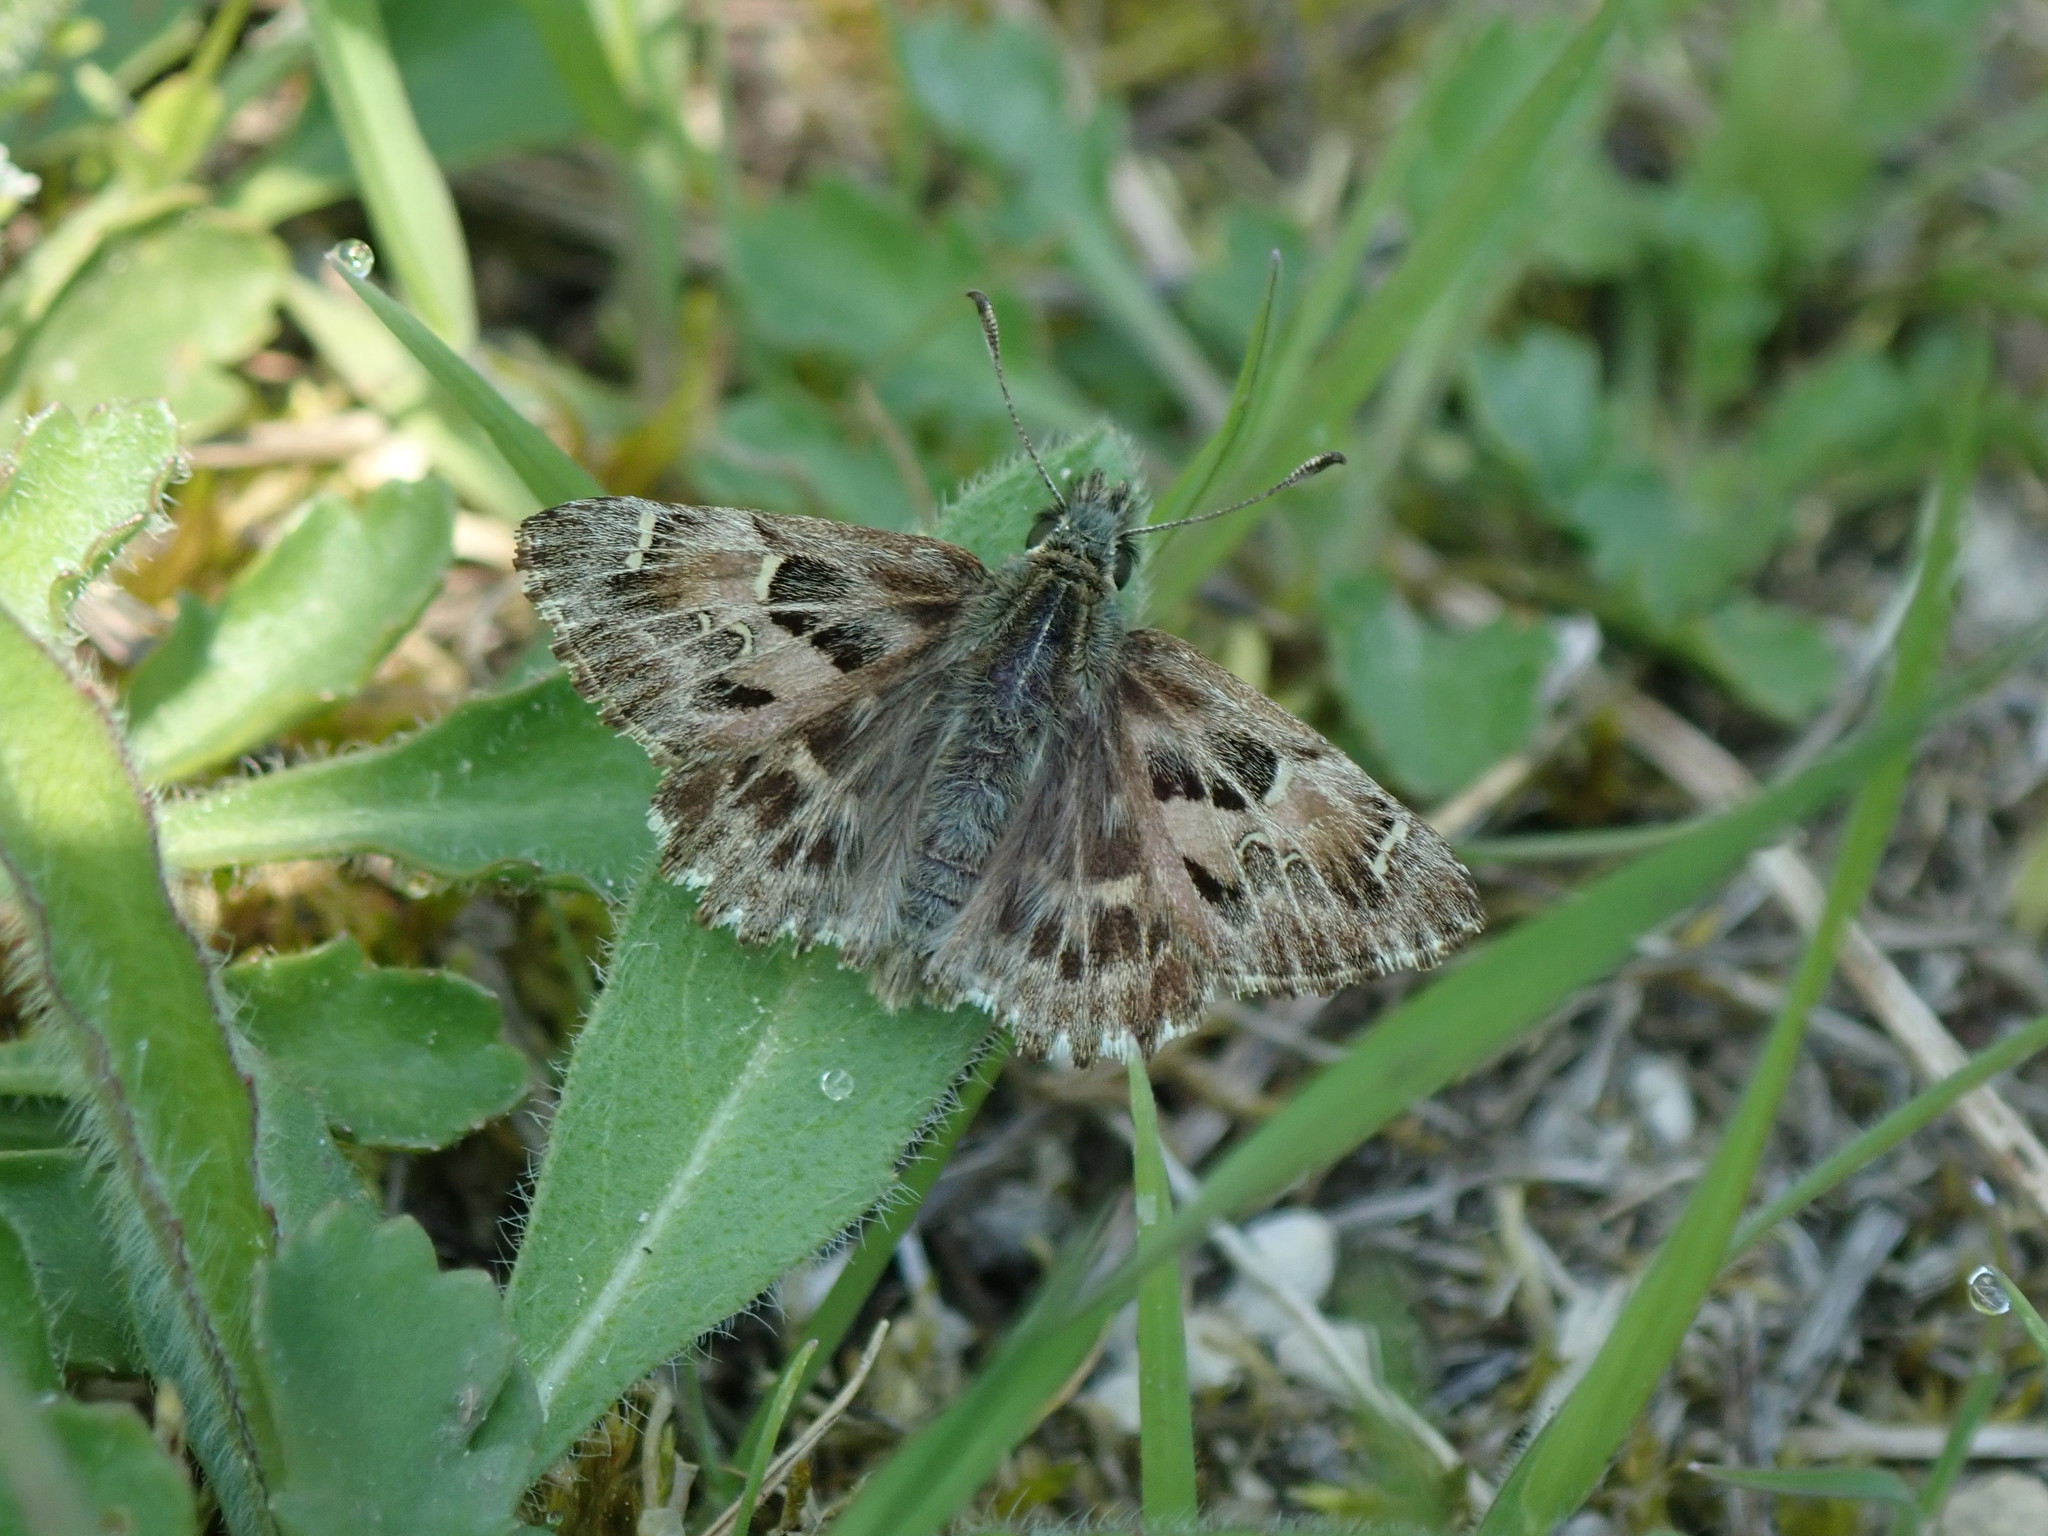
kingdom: Animalia
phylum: Arthropoda
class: Insecta
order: Lepidoptera
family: Hesperiidae
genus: Carcharodus
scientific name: Carcharodus alceae
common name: Mallow skipper
